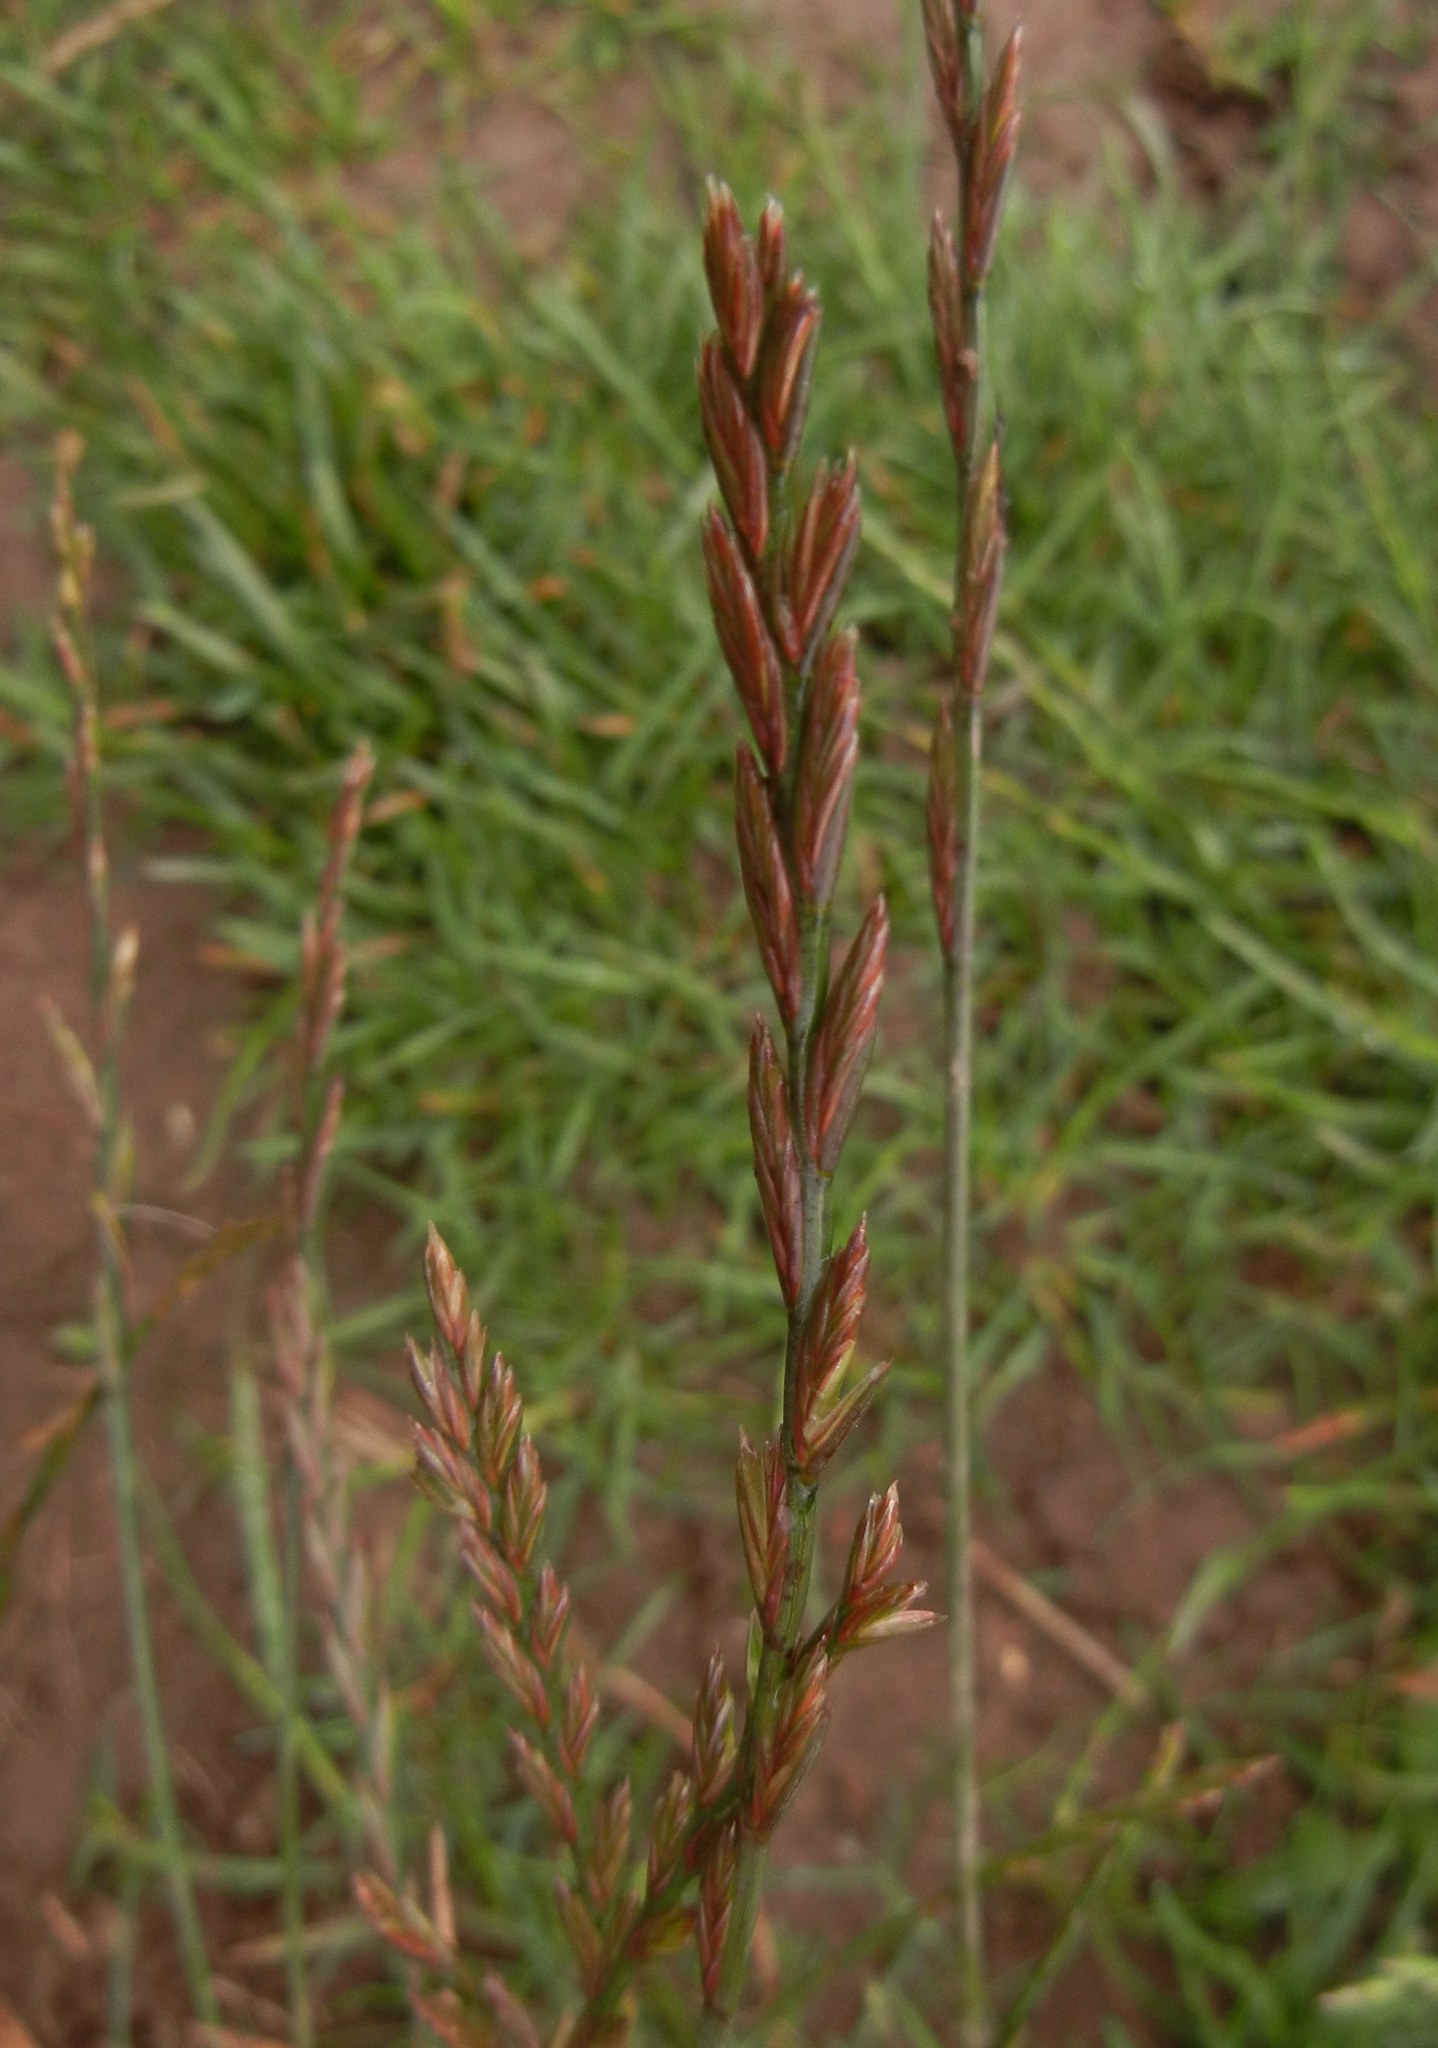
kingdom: Plantae
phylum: Tracheophyta
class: Liliopsida
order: Poales
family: Poaceae
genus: Lolium
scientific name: Lolium perenne
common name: Perennial ryegrass
